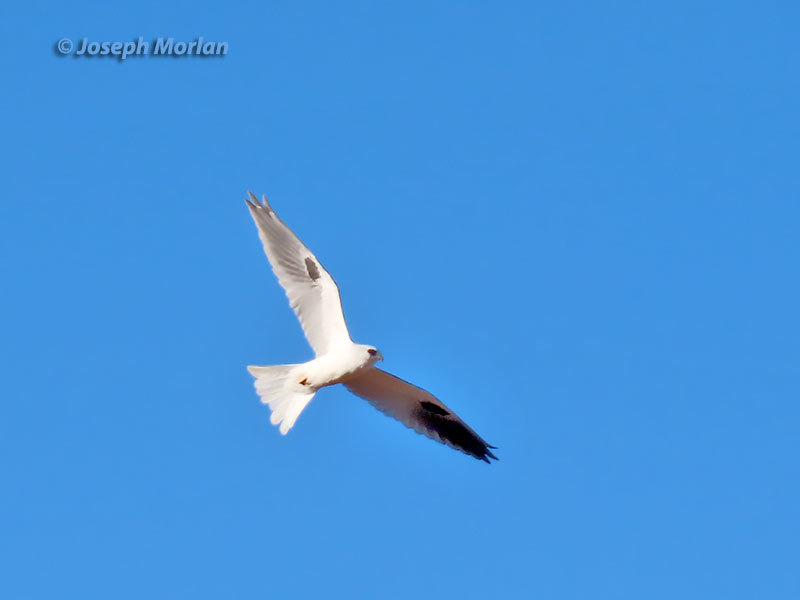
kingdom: Animalia
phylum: Chordata
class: Aves
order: Accipitriformes
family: Accipitridae
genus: Elanus
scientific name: Elanus leucurus
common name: White-tailed kite
